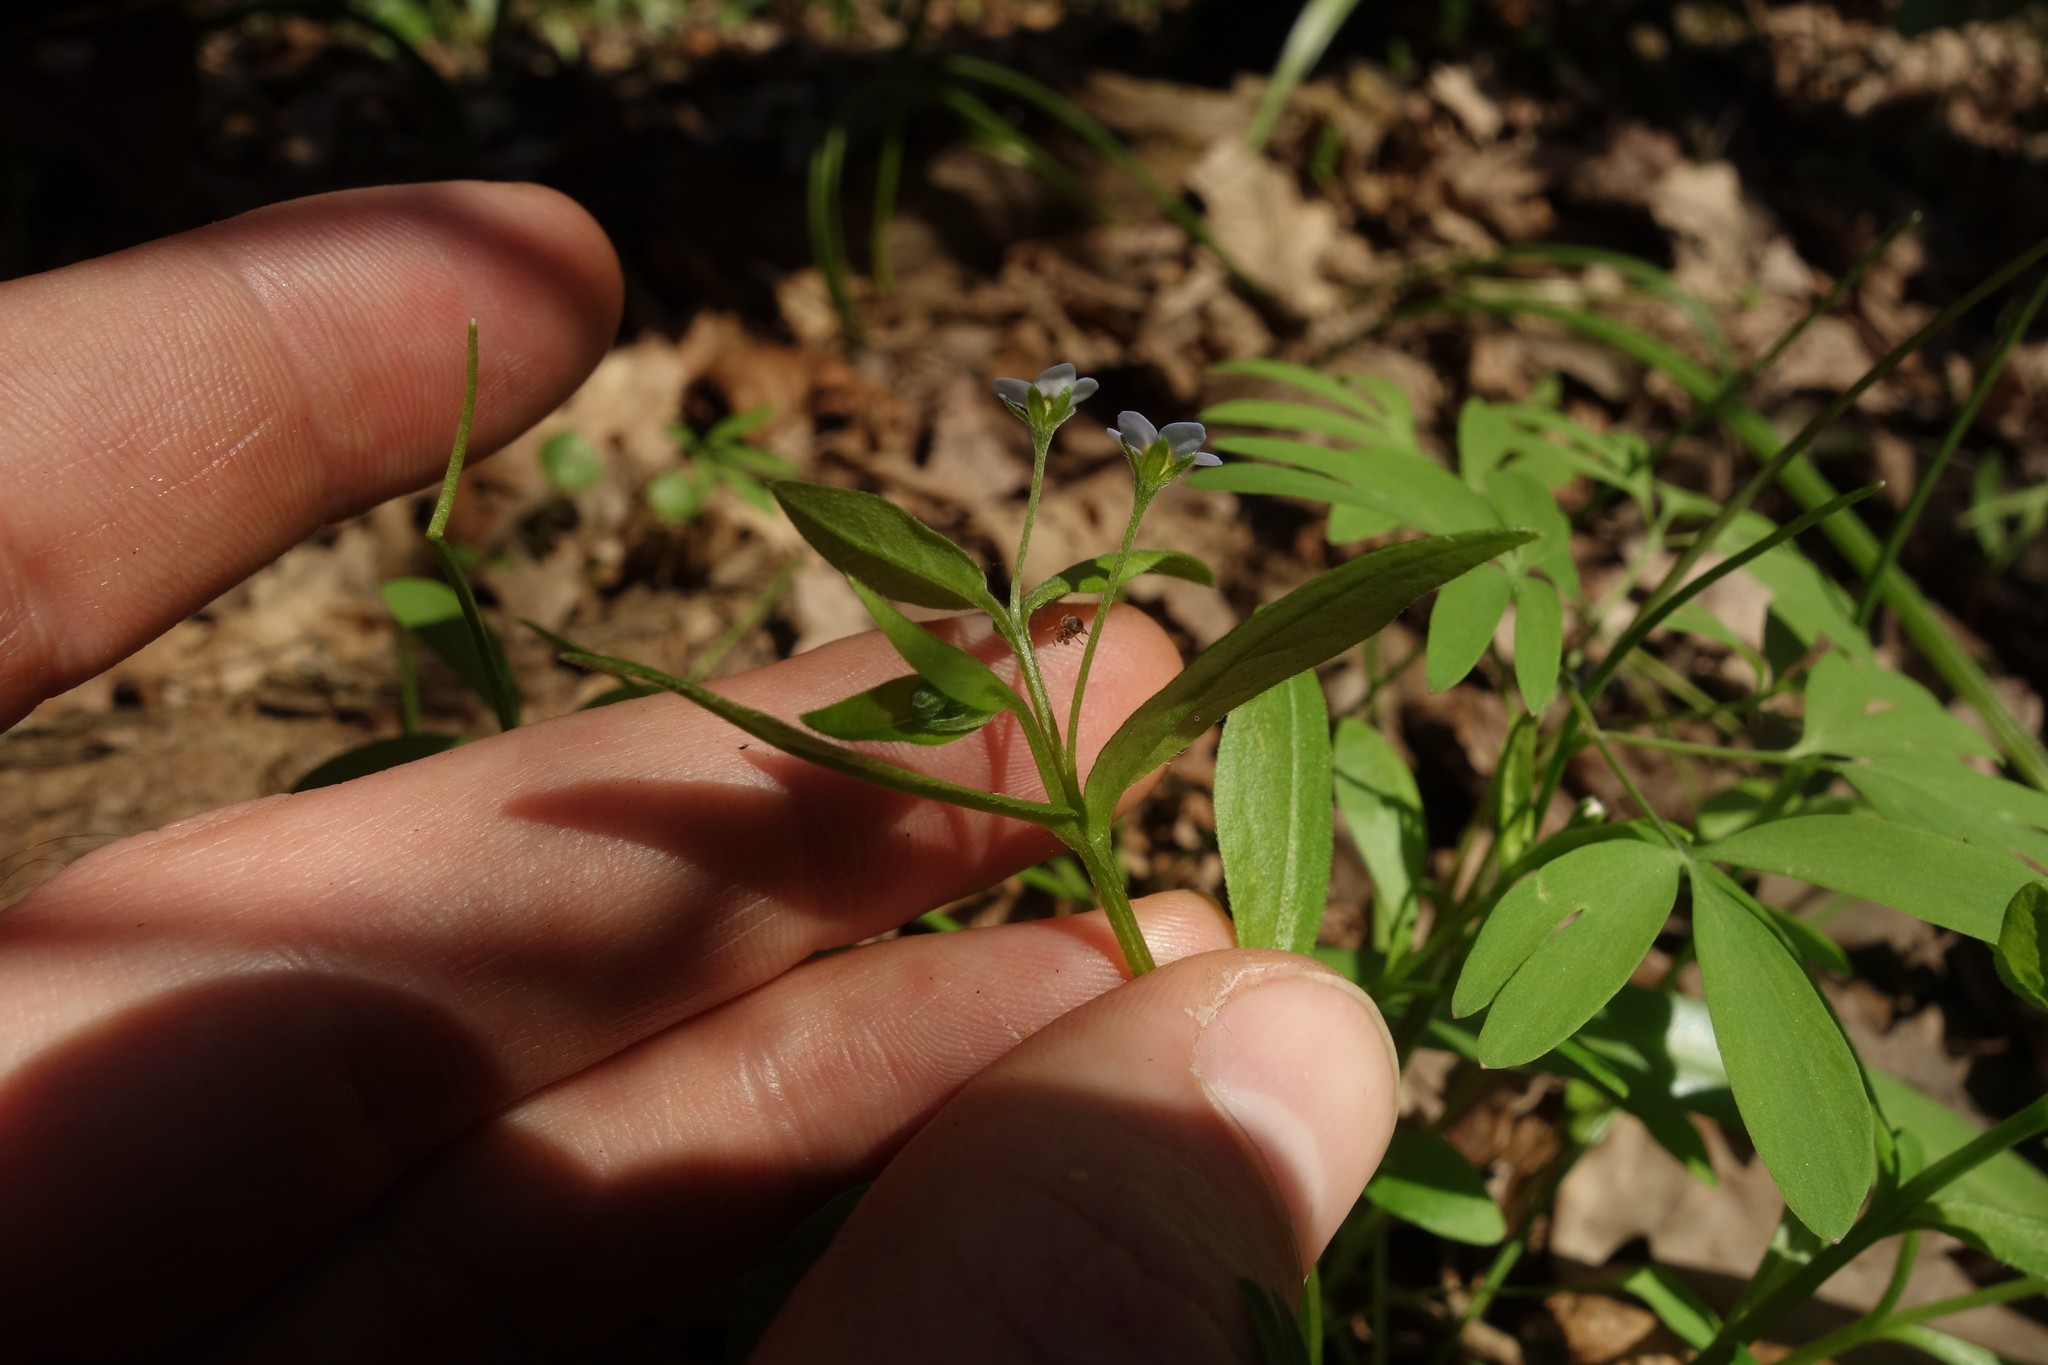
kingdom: Plantae
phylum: Tracheophyta
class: Magnoliopsida
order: Boraginales
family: Boraginaceae
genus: Memoremea
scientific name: Memoremea scorpioides
